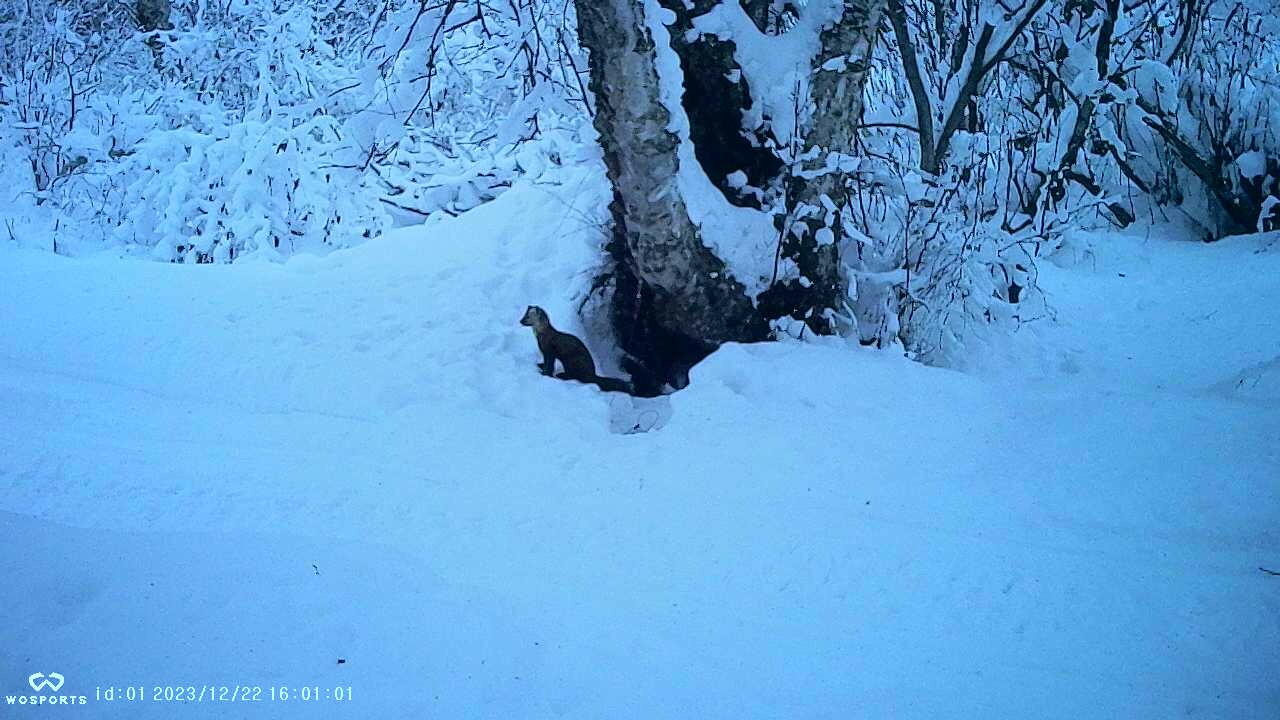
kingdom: Animalia
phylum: Chordata
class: Mammalia
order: Carnivora
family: Mustelidae
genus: Martes
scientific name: Martes americana
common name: American marten
